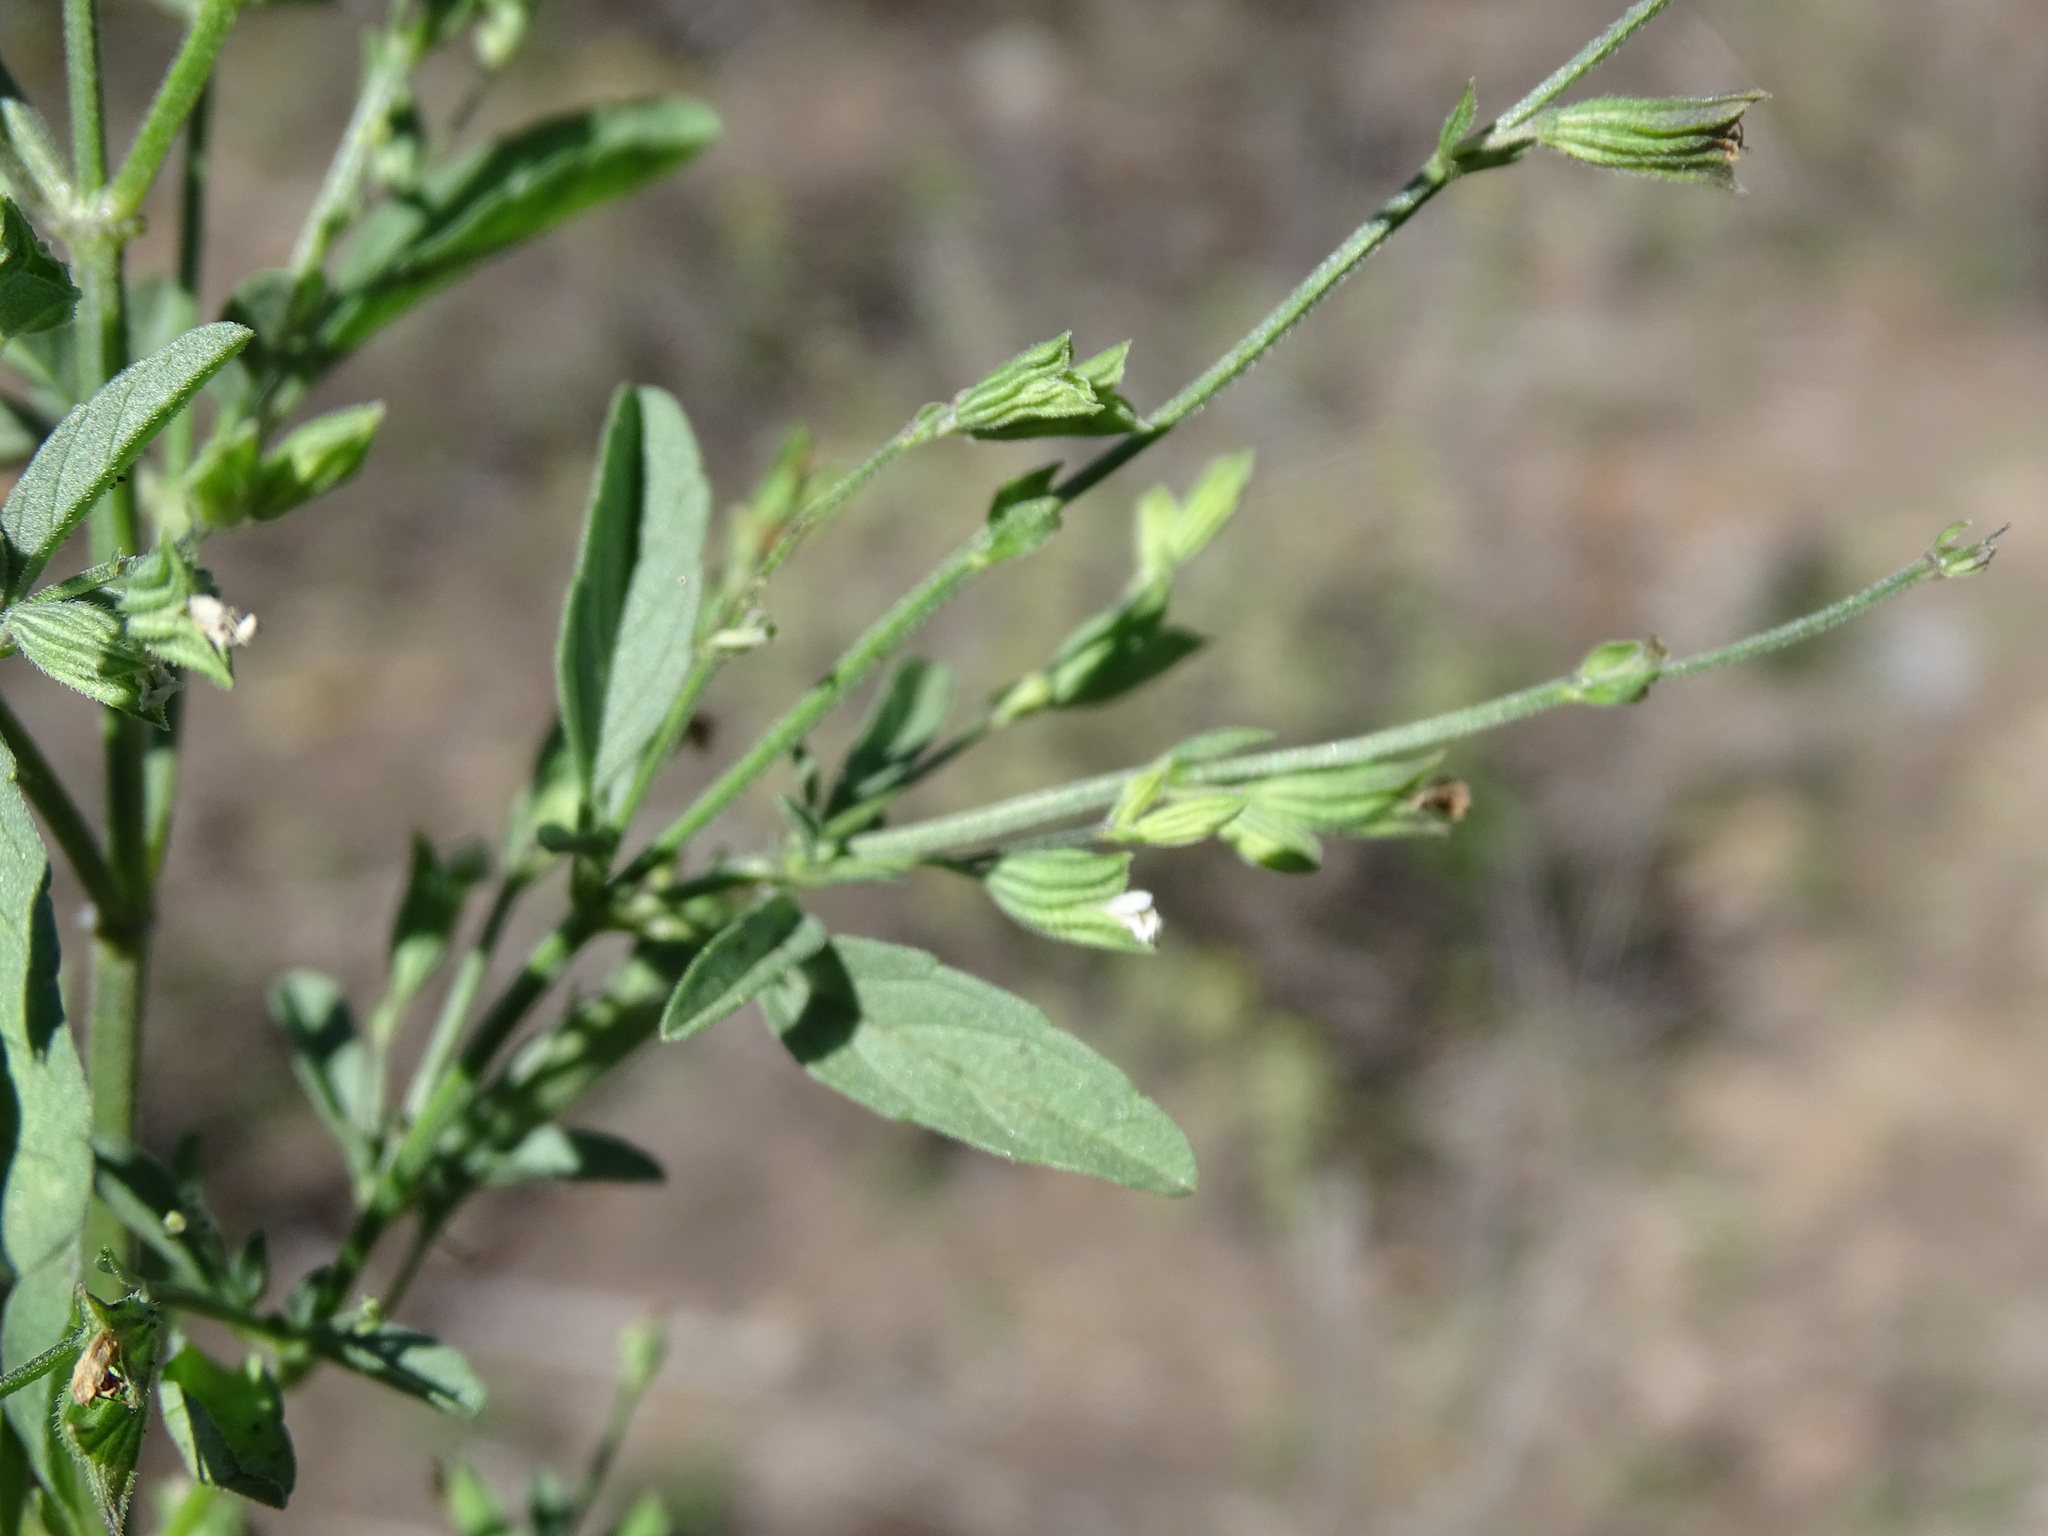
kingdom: Plantae
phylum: Tracheophyta
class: Magnoliopsida
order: Lamiales
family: Lamiaceae
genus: Salvia
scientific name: Salvia reflexa
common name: Mintweed
